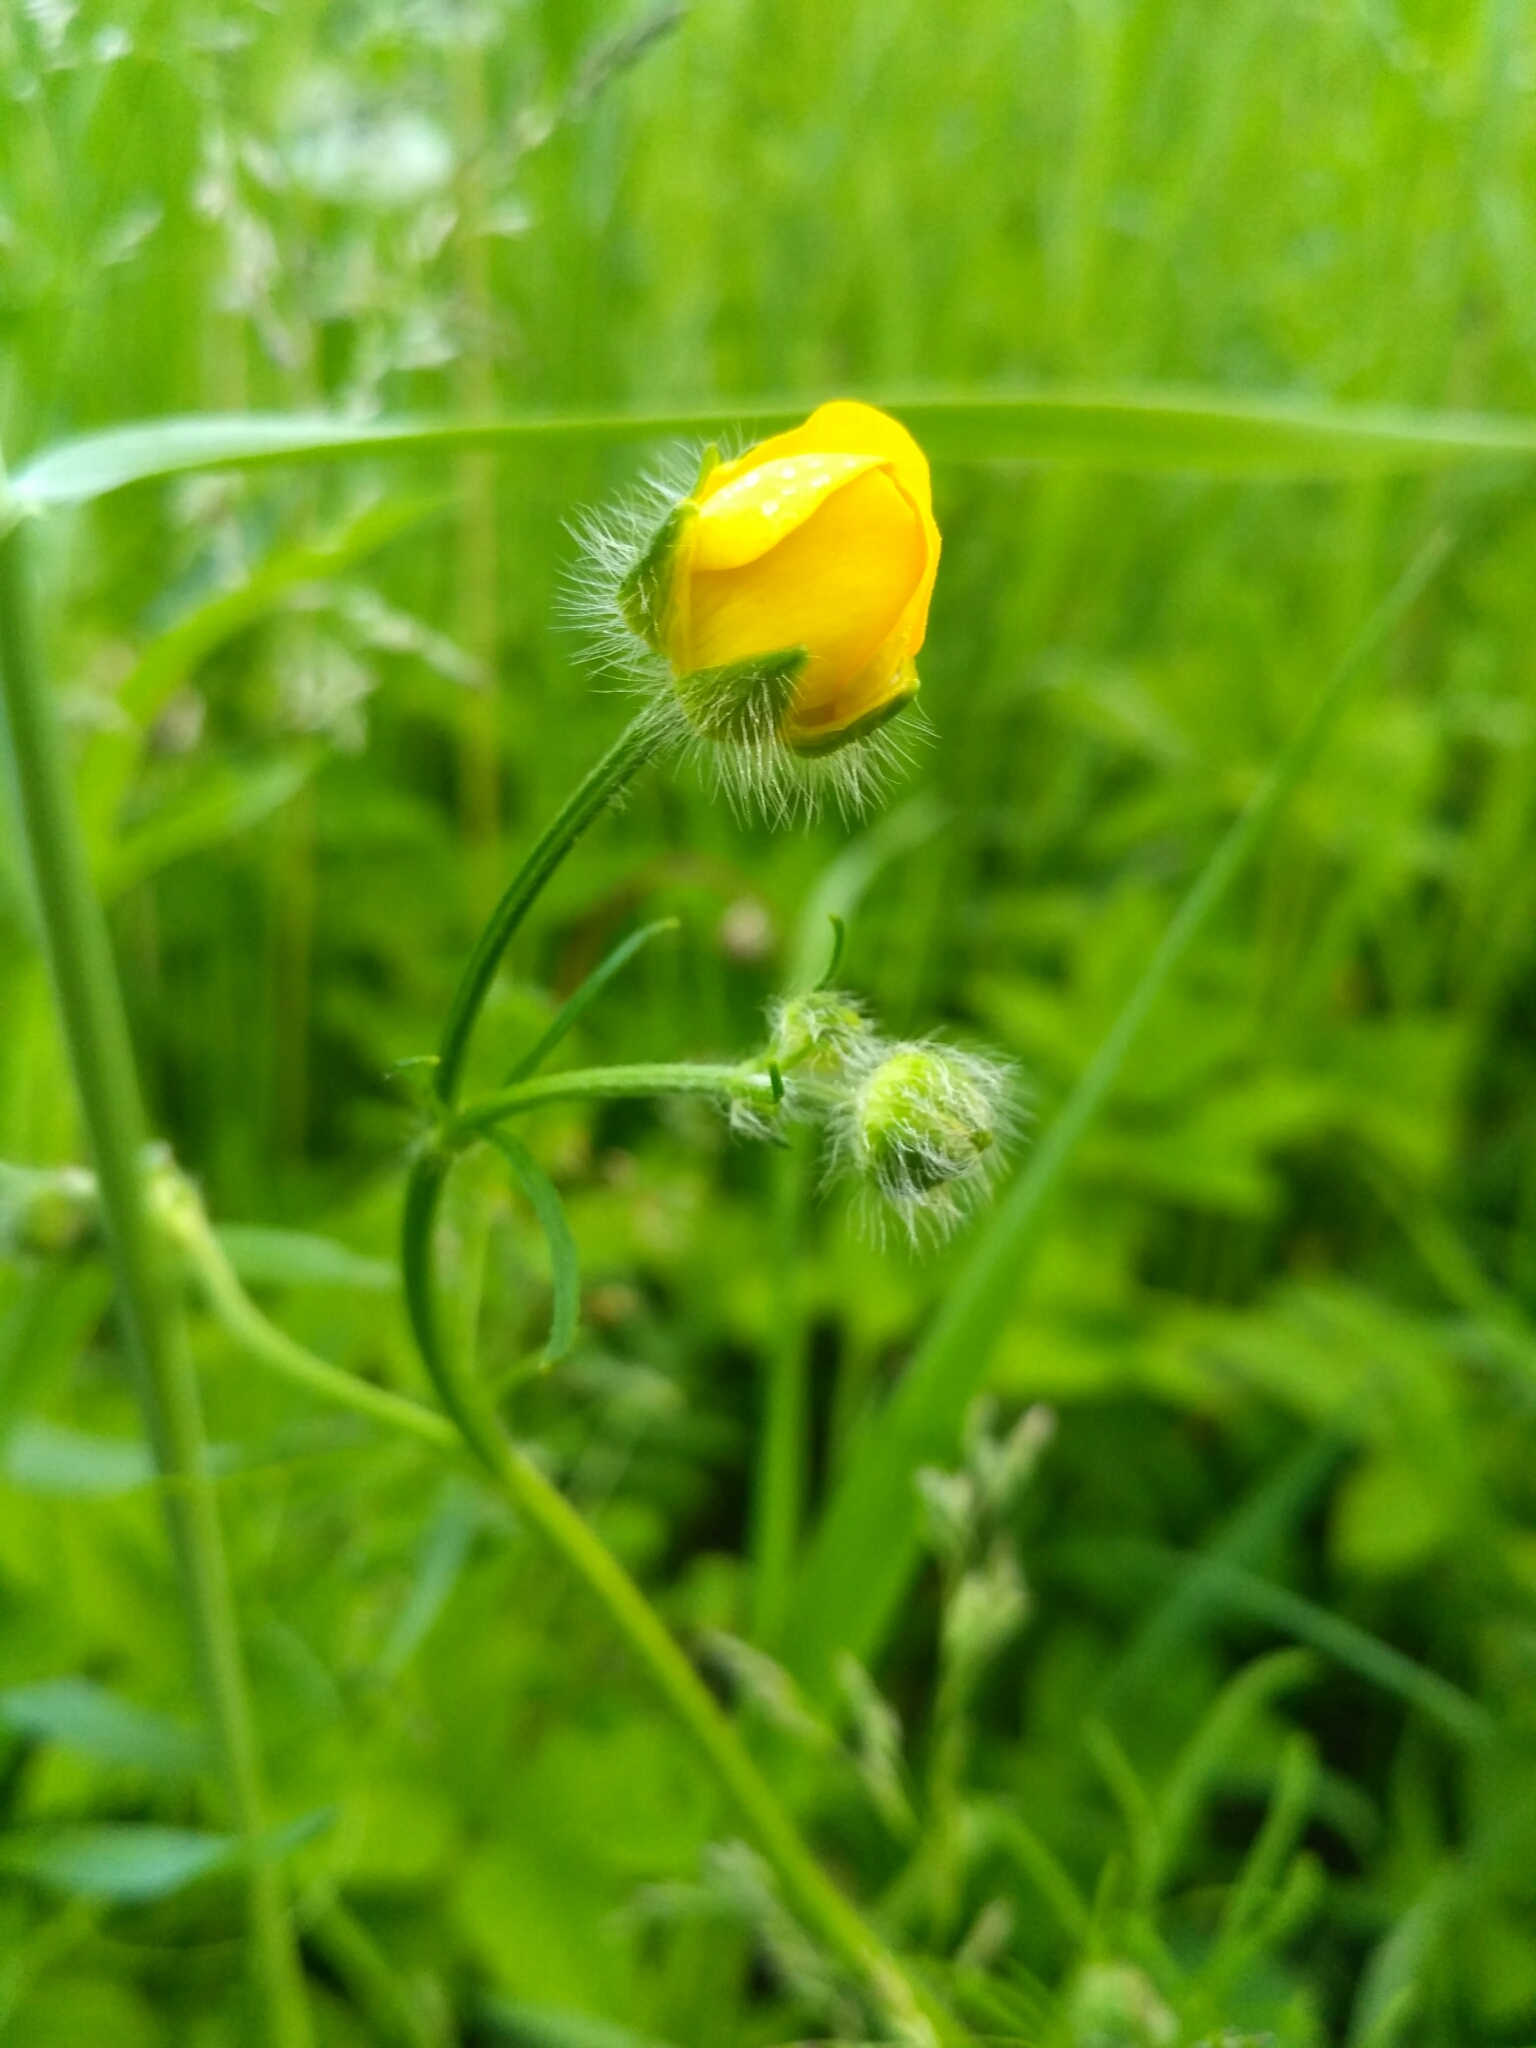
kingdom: Plantae
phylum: Tracheophyta
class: Magnoliopsida
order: Ranunculales
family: Ranunculaceae
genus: Ranunculus
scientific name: Ranunculus polyanthemos
